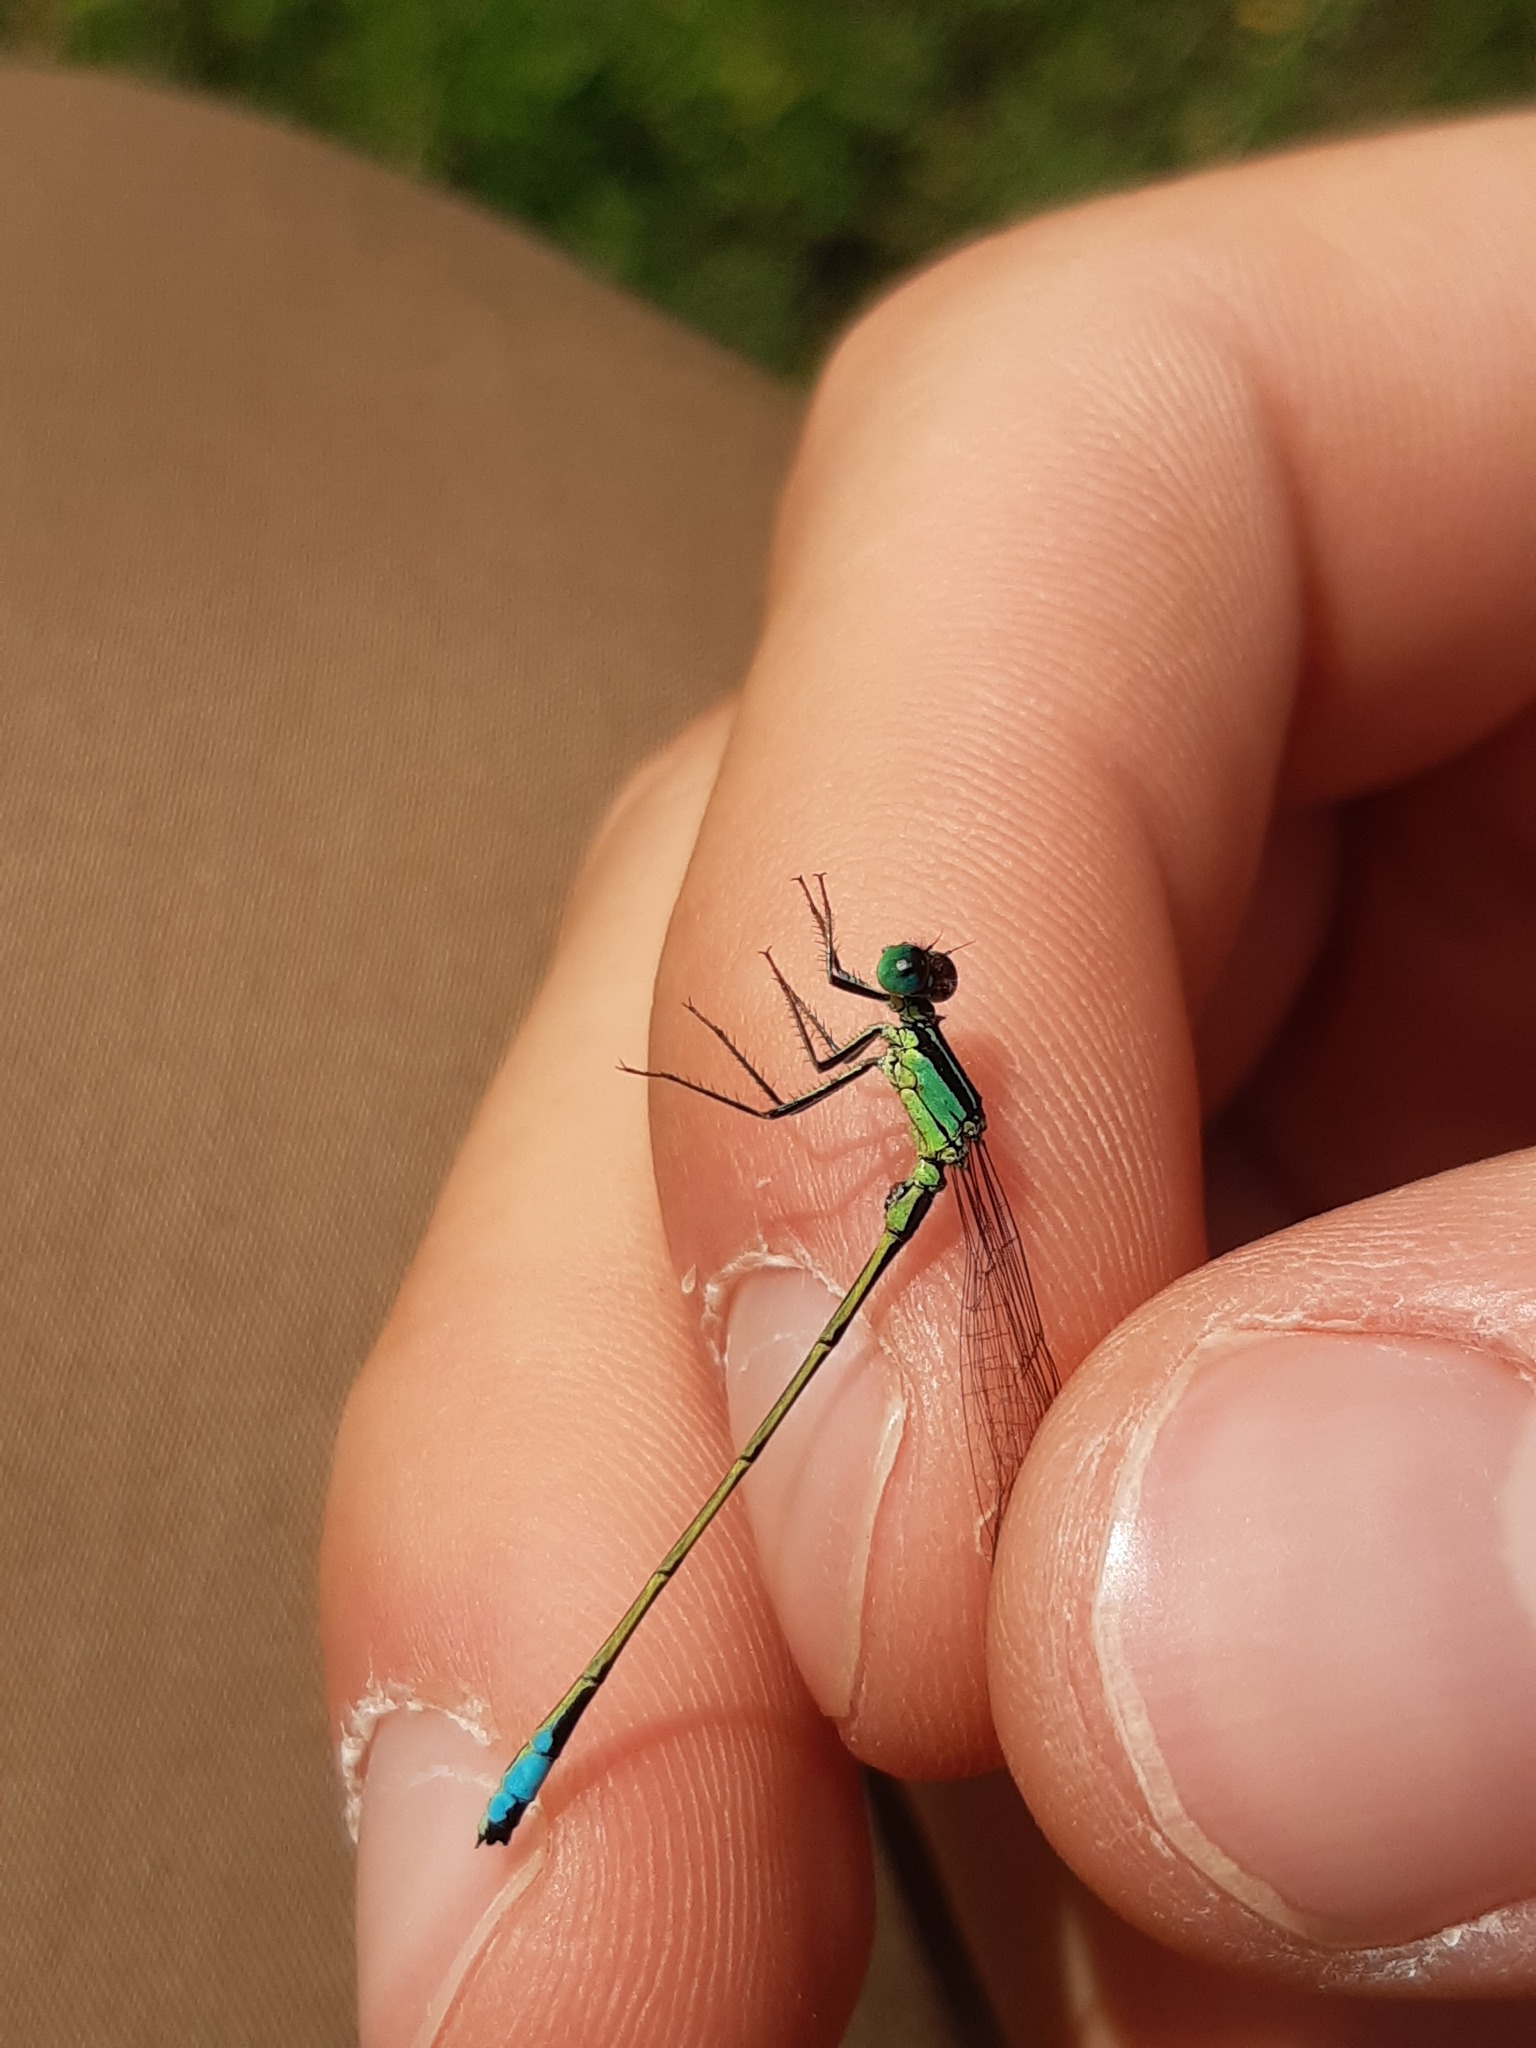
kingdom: Animalia
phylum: Arthropoda
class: Insecta
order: Odonata
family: Coenagrionidae
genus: Ischnura
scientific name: Ischnura elegans
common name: Blue-tailed damselfly
